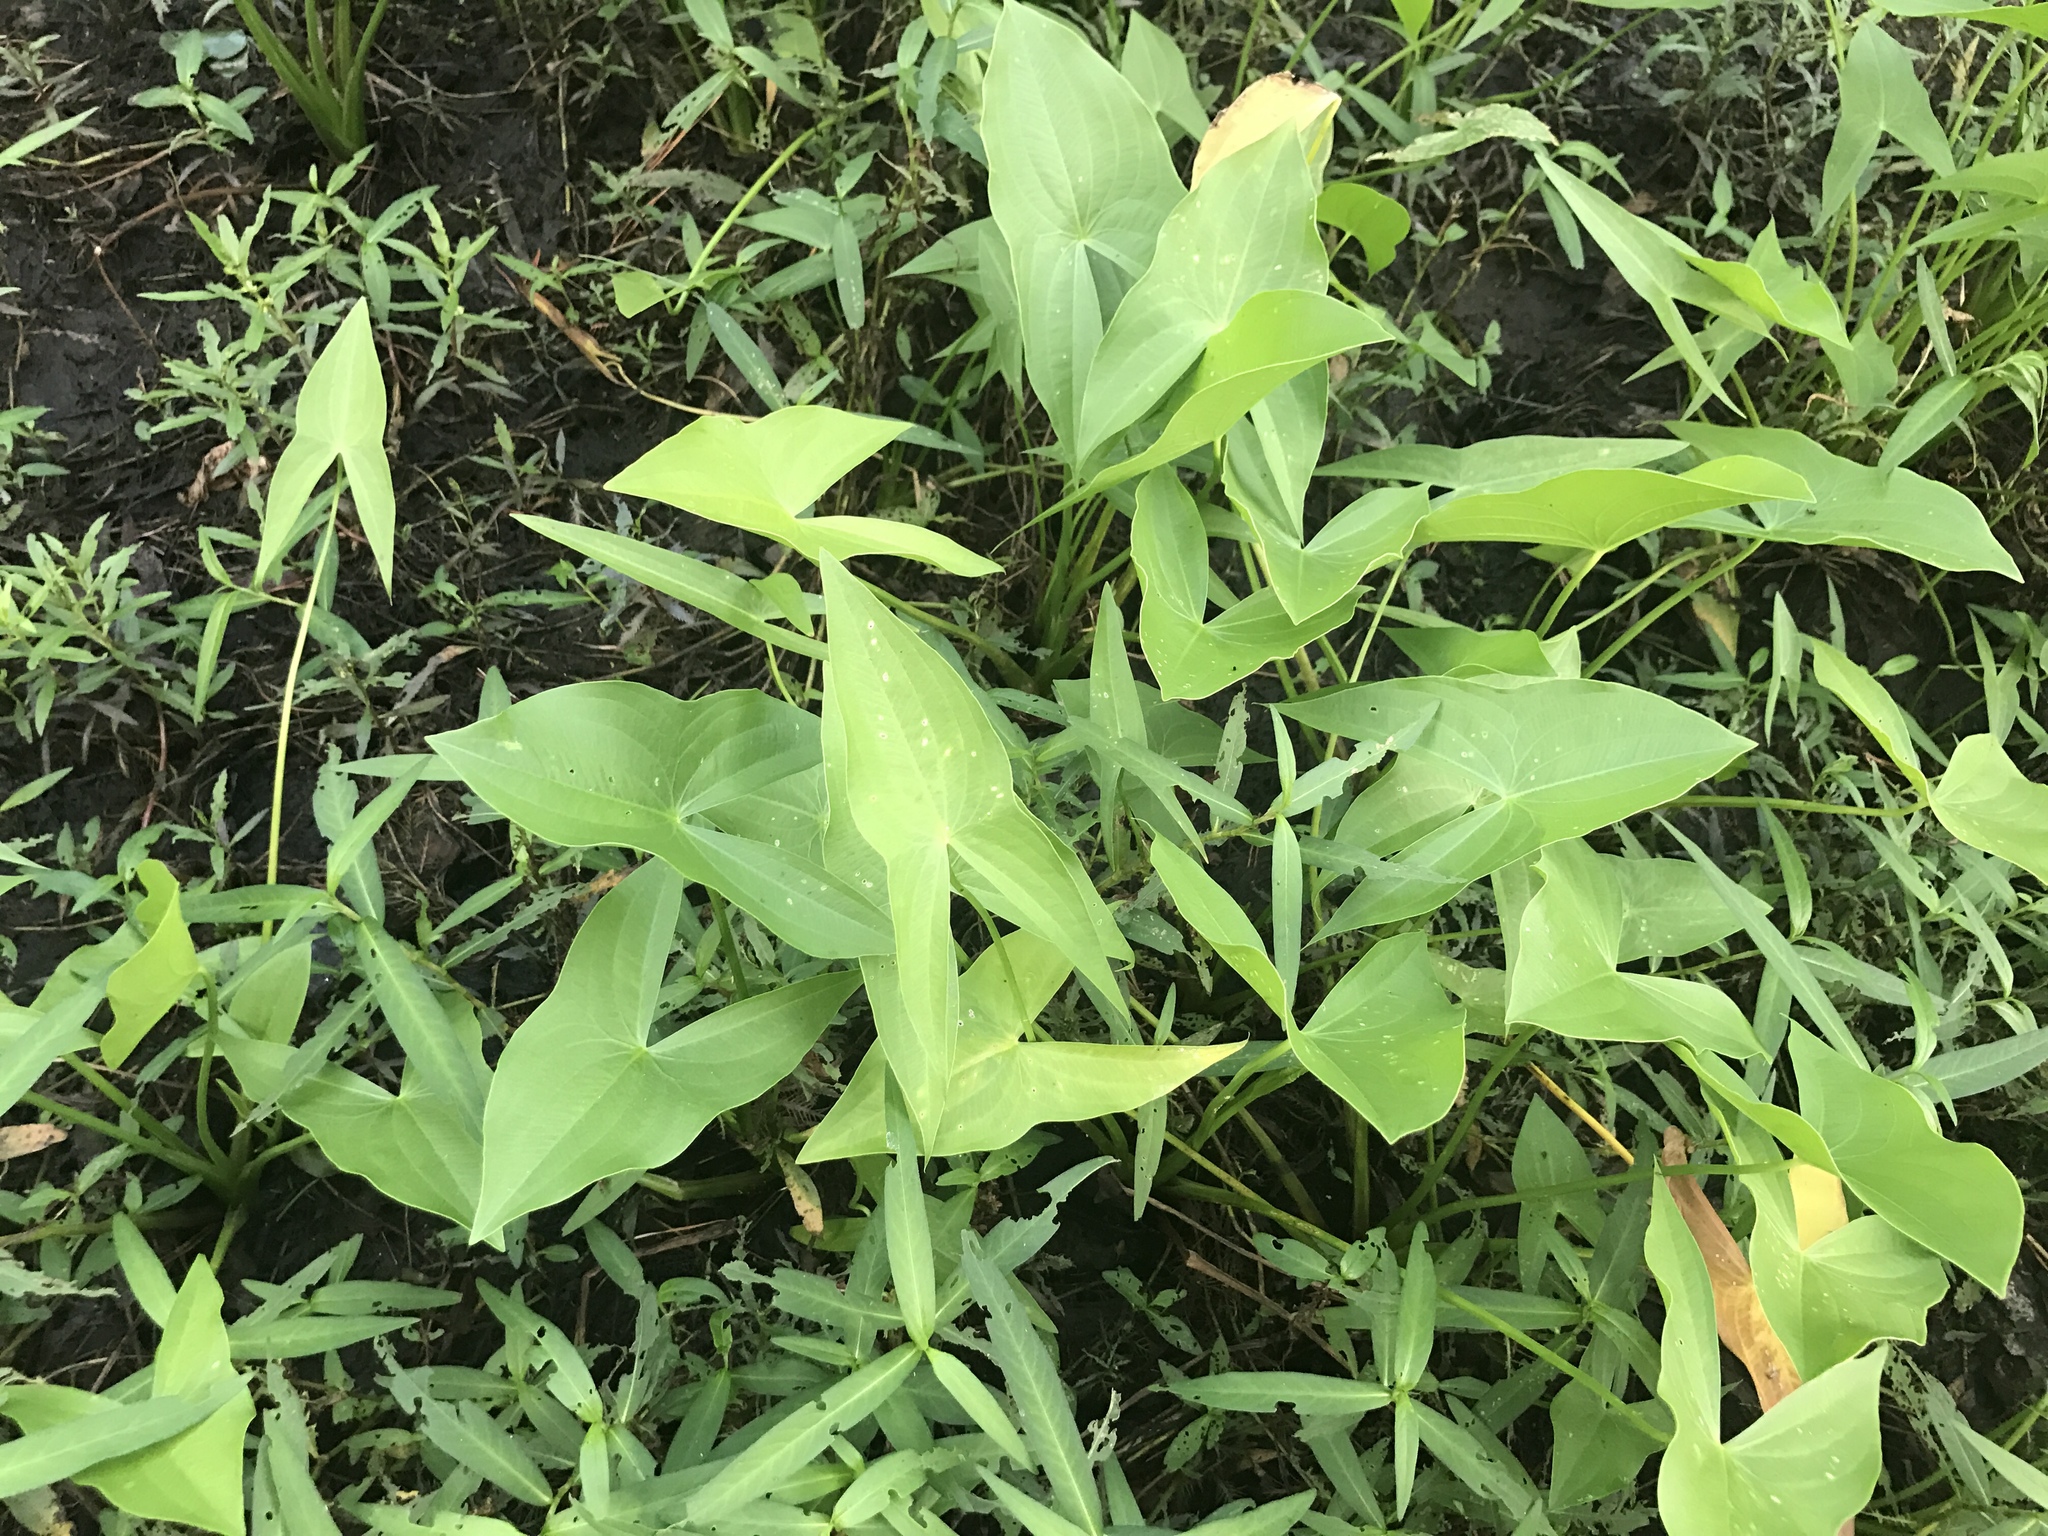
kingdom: Plantae
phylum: Tracheophyta
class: Liliopsida
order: Alismatales
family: Alismataceae
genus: Sagittaria
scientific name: Sagittaria latifolia
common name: Duck-potato
